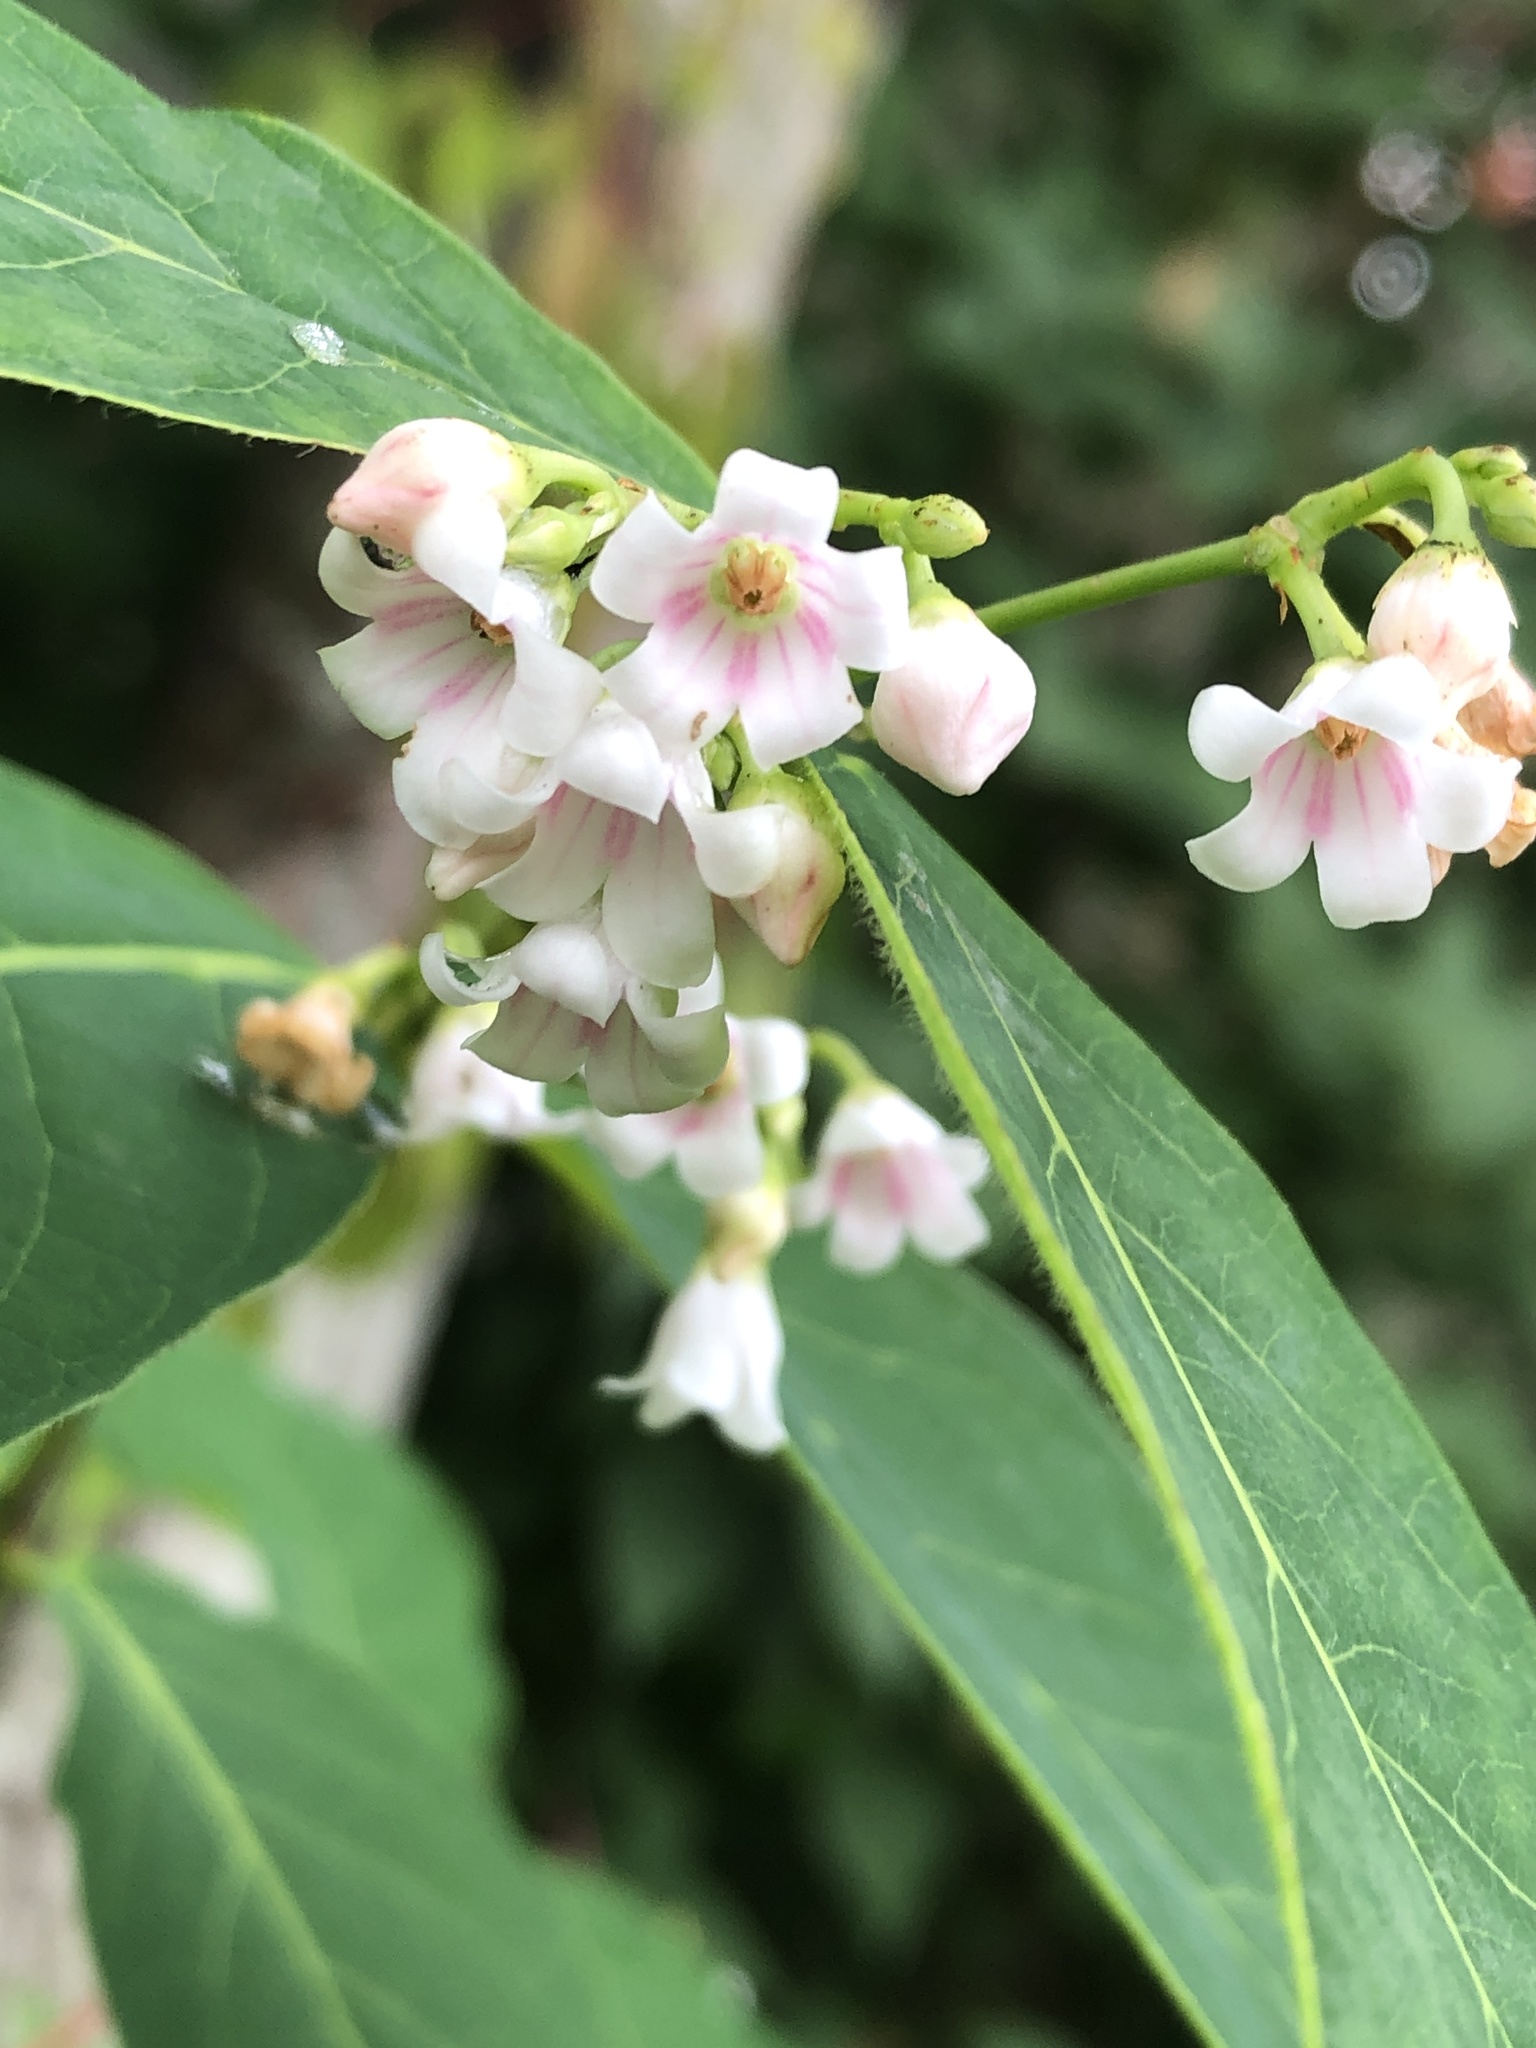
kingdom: Plantae
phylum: Tracheophyta
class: Magnoliopsida
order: Gentianales
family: Apocynaceae
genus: Apocynum
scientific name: Apocynum androsaemifolium
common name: Spreading dogbane
